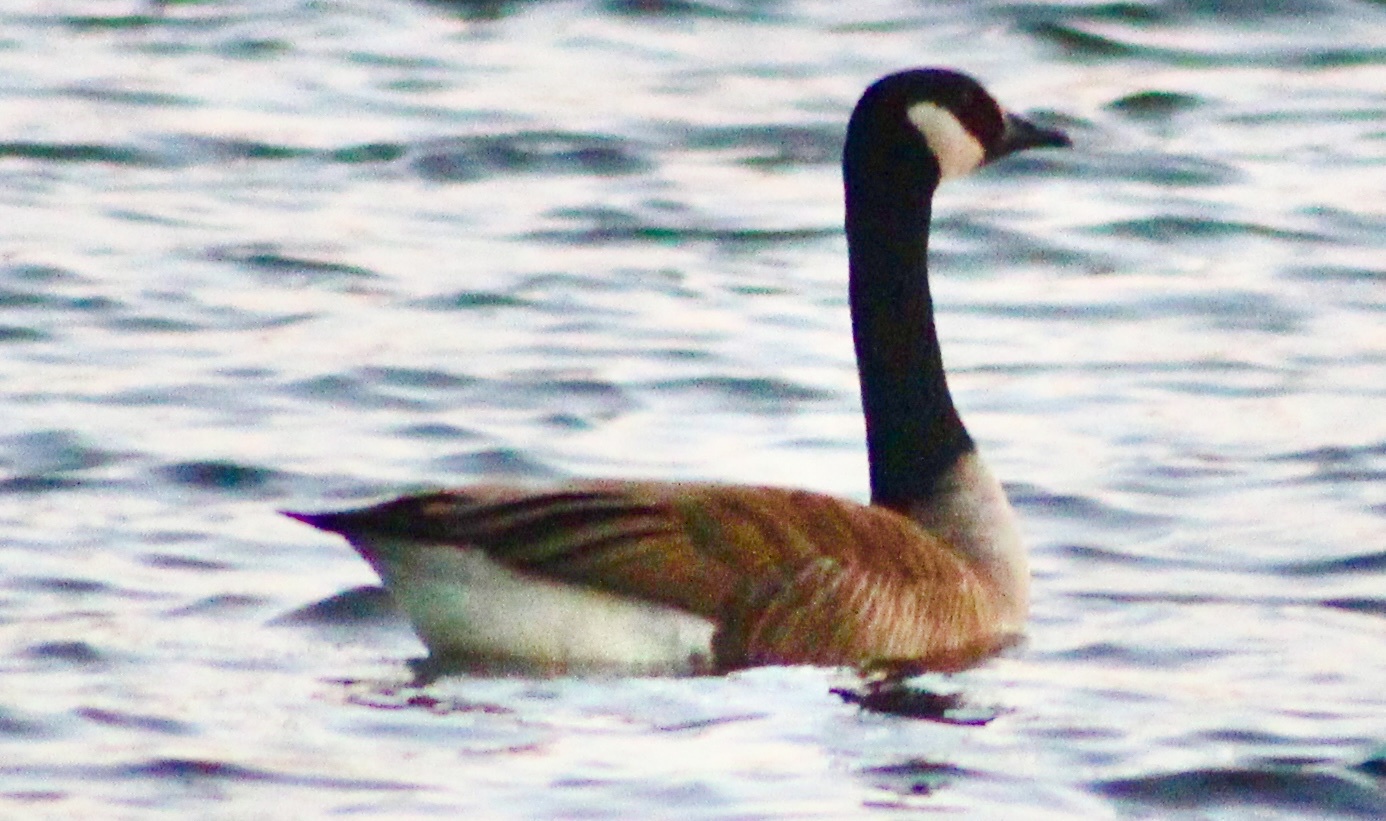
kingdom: Animalia
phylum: Chordata
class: Aves
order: Anseriformes
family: Anatidae
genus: Branta
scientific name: Branta canadensis
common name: Canada goose
